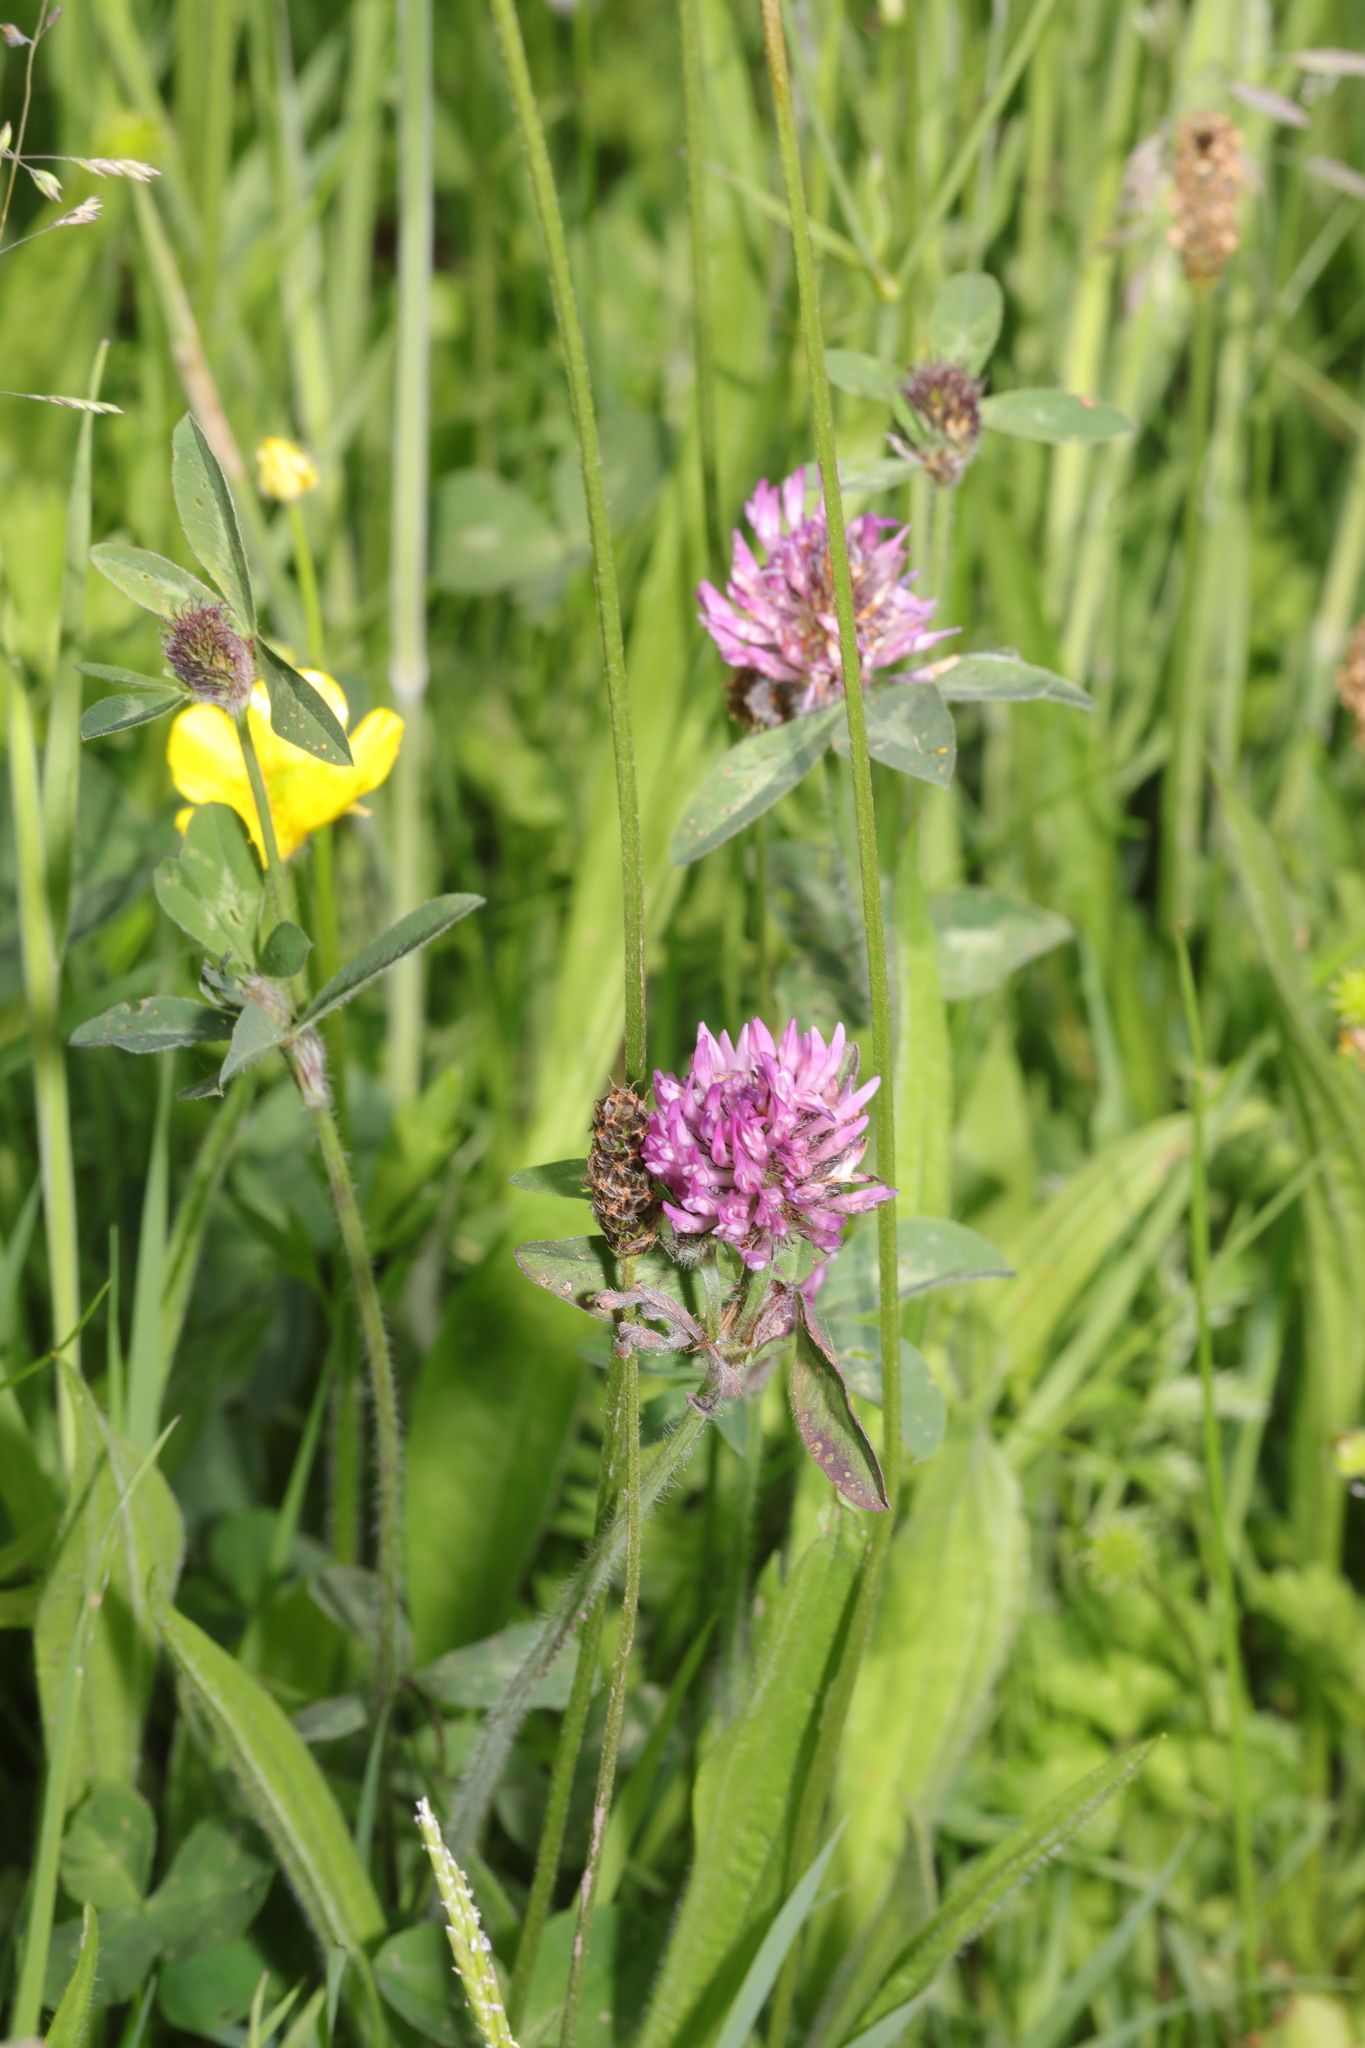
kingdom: Plantae
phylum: Tracheophyta
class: Magnoliopsida
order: Fabales
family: Fabaceae
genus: Trifolium
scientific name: Trifolium pratense
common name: Red clover
